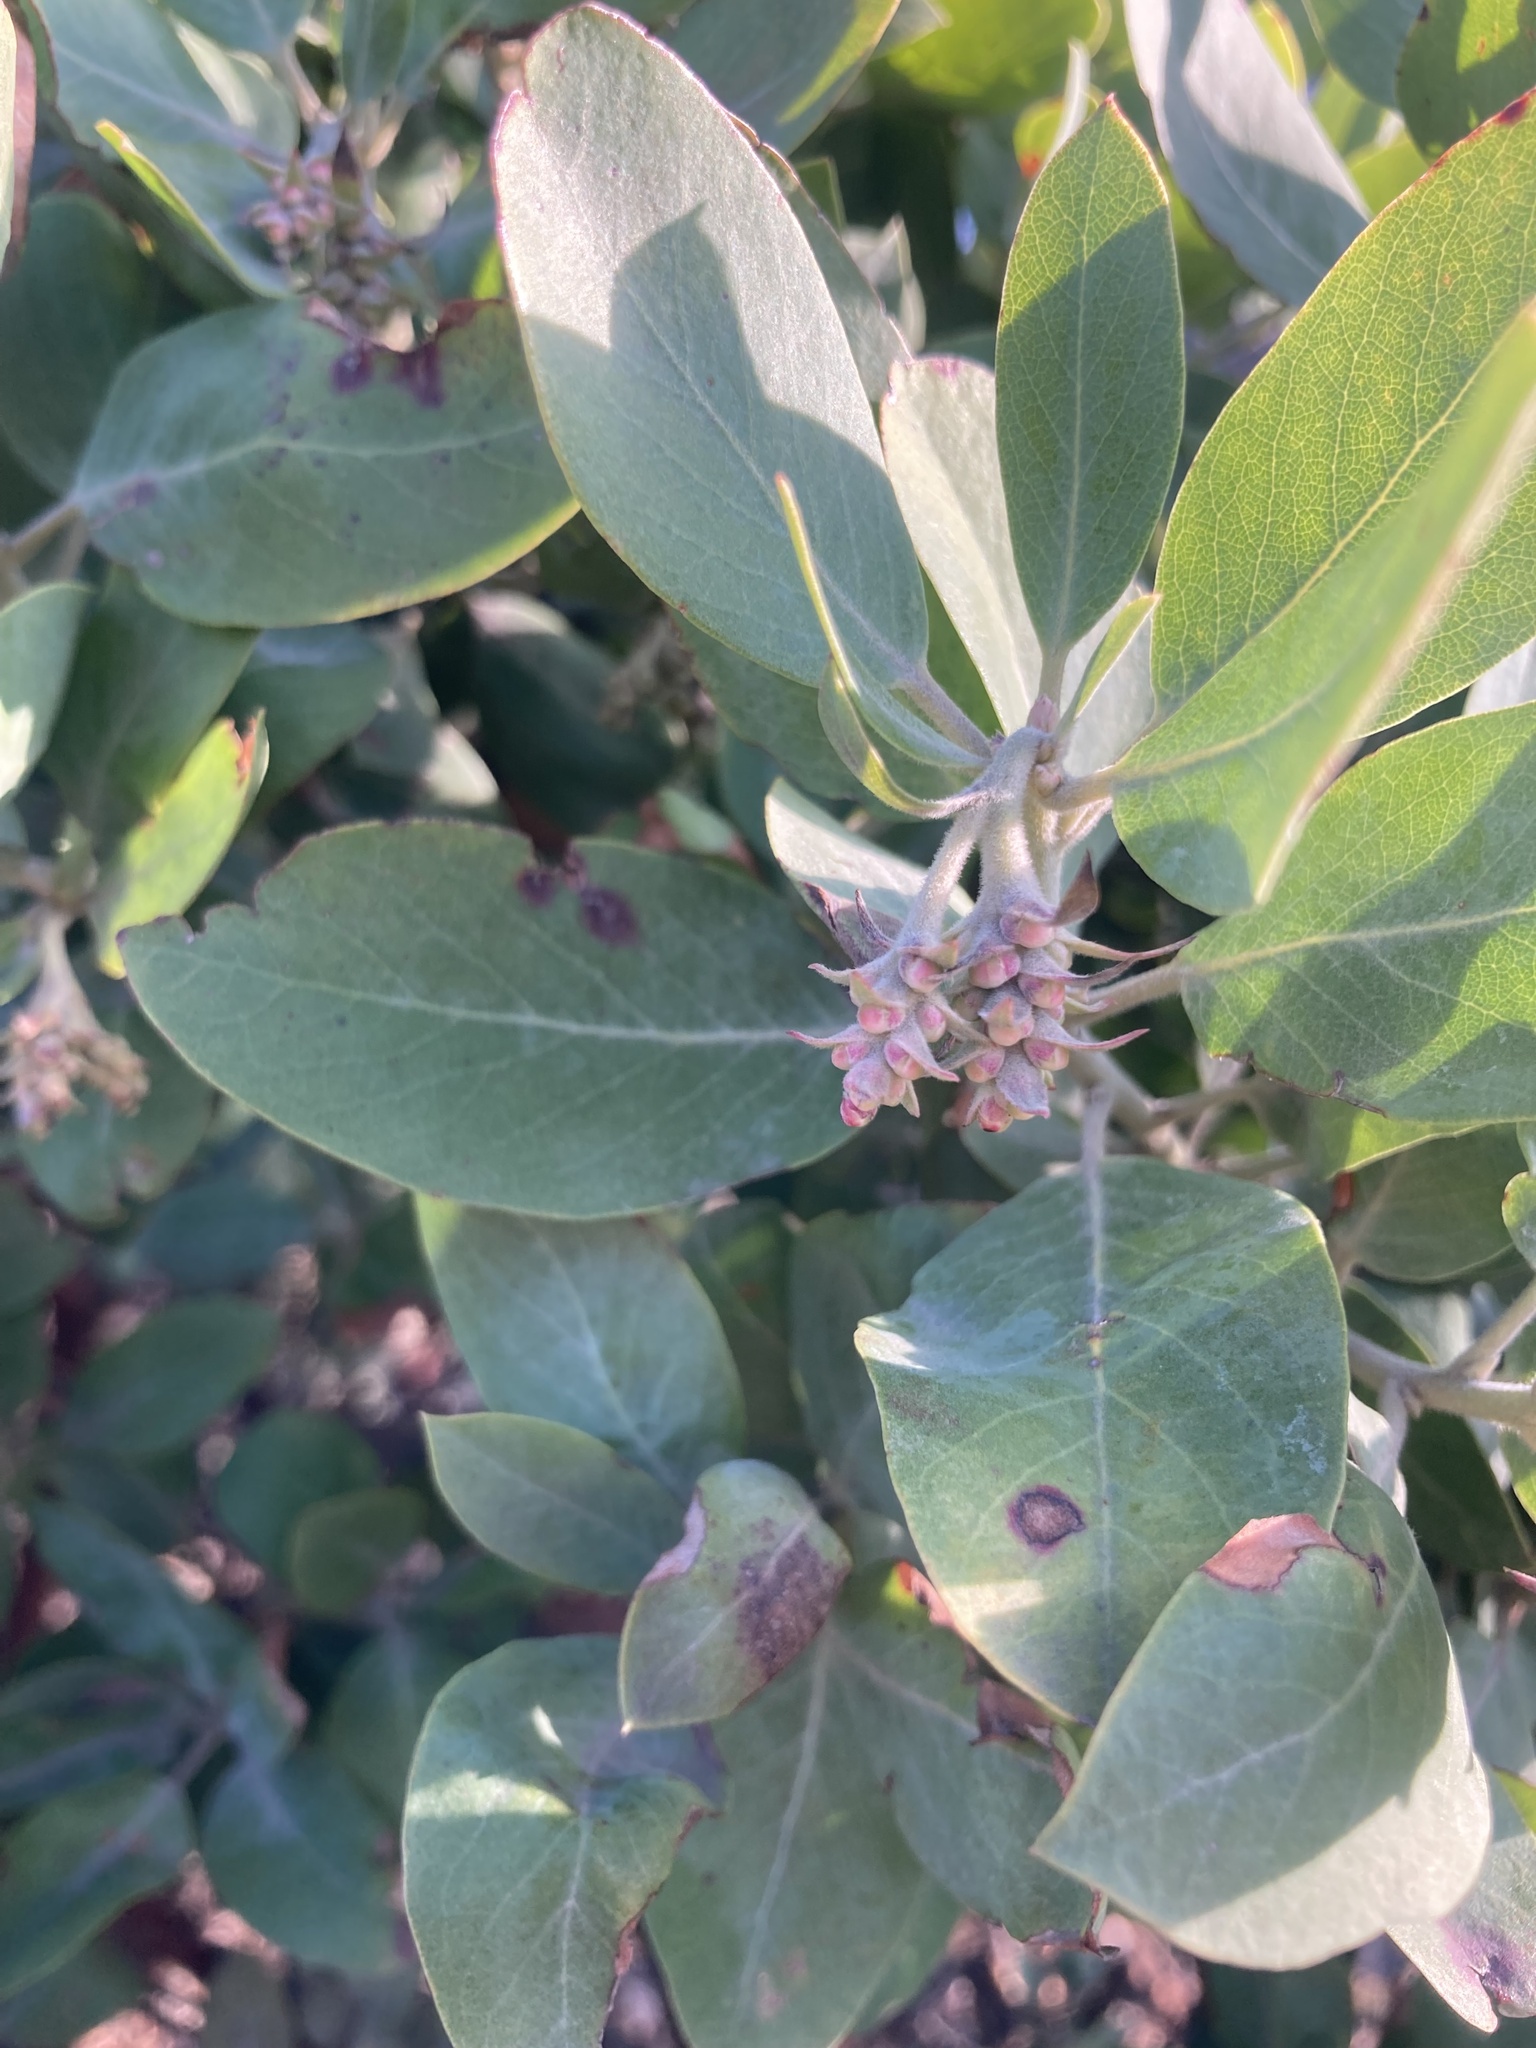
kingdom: Plantae
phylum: Tracheophyta
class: Magnoliopsida
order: Ericales
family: Ericaceae
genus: Arctostaphylos
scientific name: Arctostaphylos columbiana
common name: Bristly bearberry
